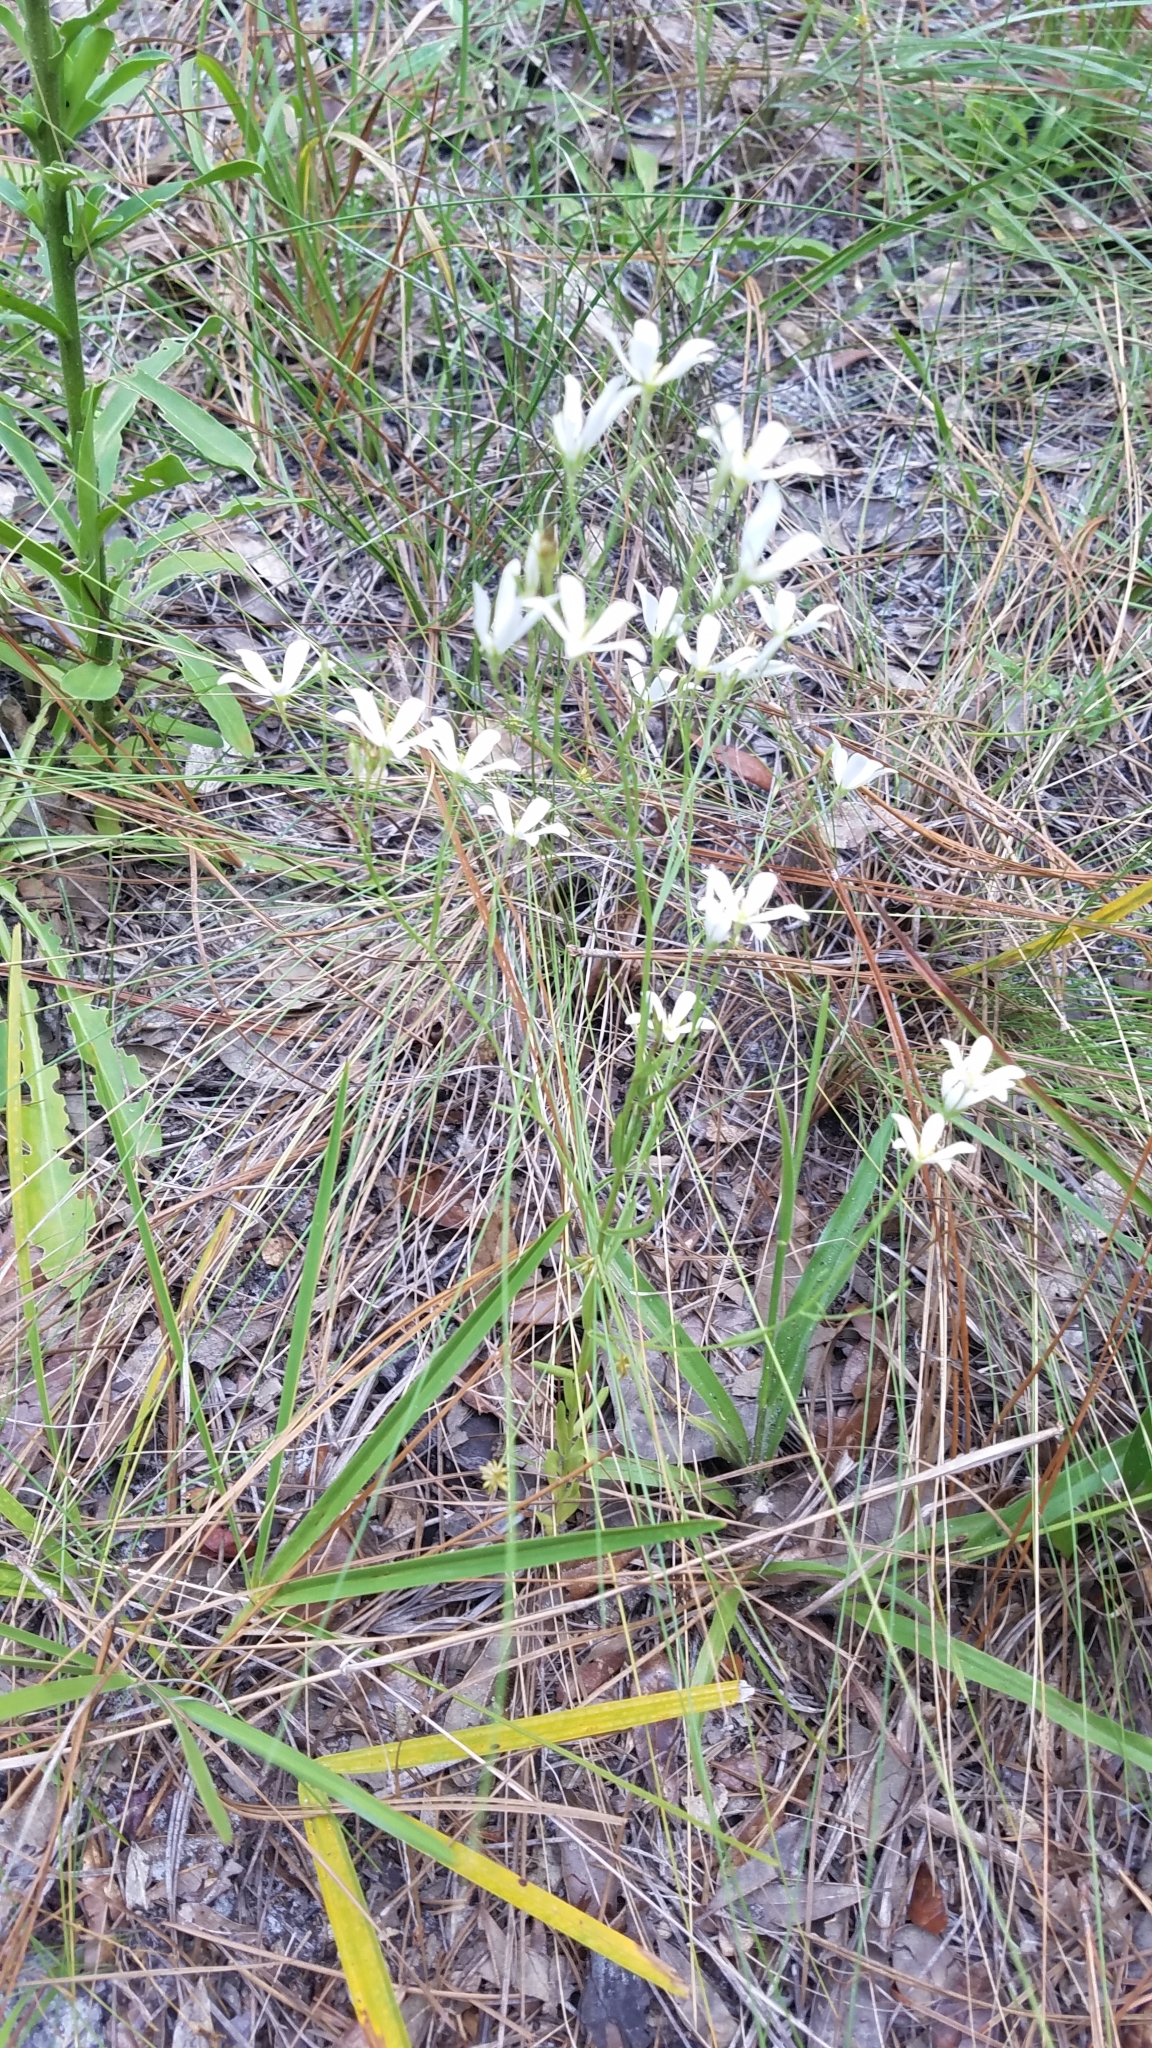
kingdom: Plantae
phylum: Tracheophyta
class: Magnoliopsida
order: Gentianales
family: Gentianaceae
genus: Sabatia
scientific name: Sabatia brevifolia
